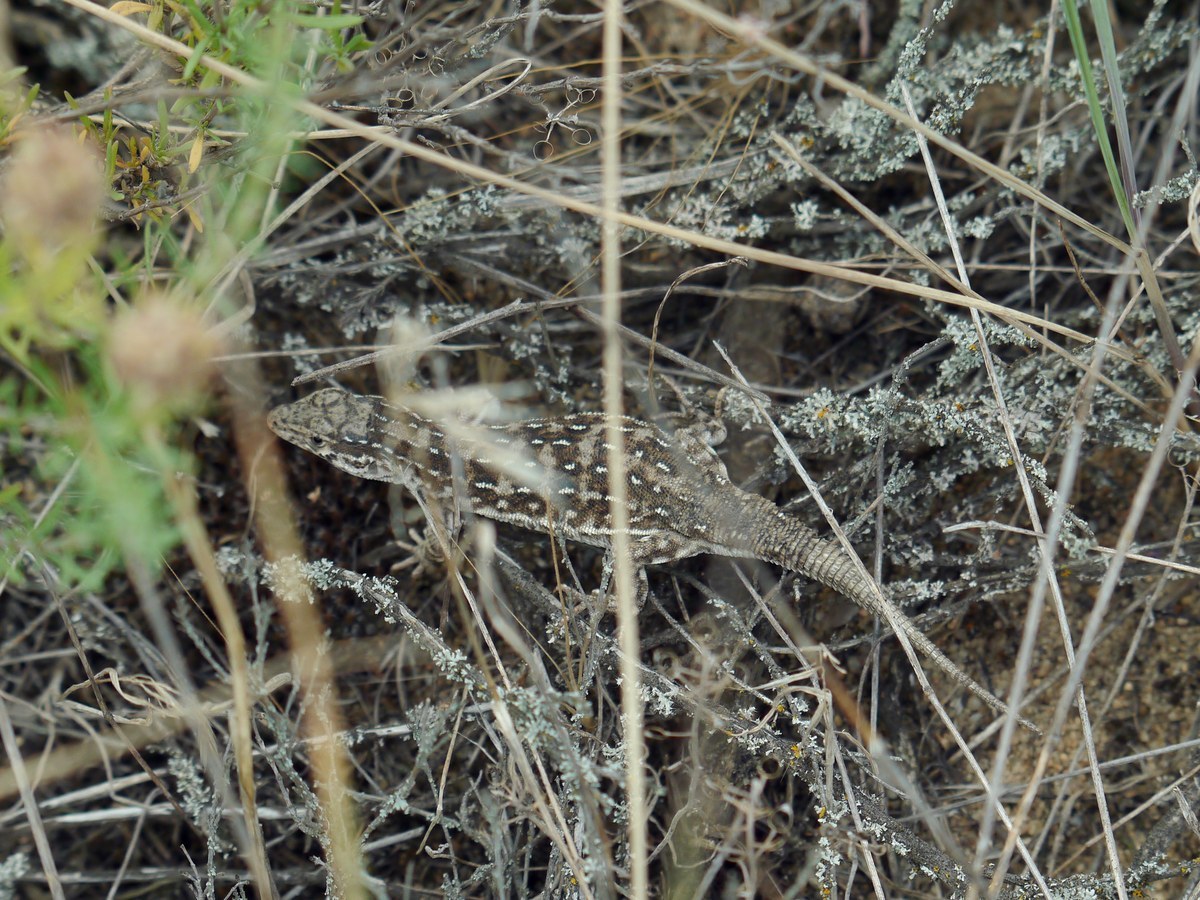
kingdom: Animalia
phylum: Chordata
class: Squamata
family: Lacertidae
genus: Eremias
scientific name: Eremias arguta
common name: Racerunner
